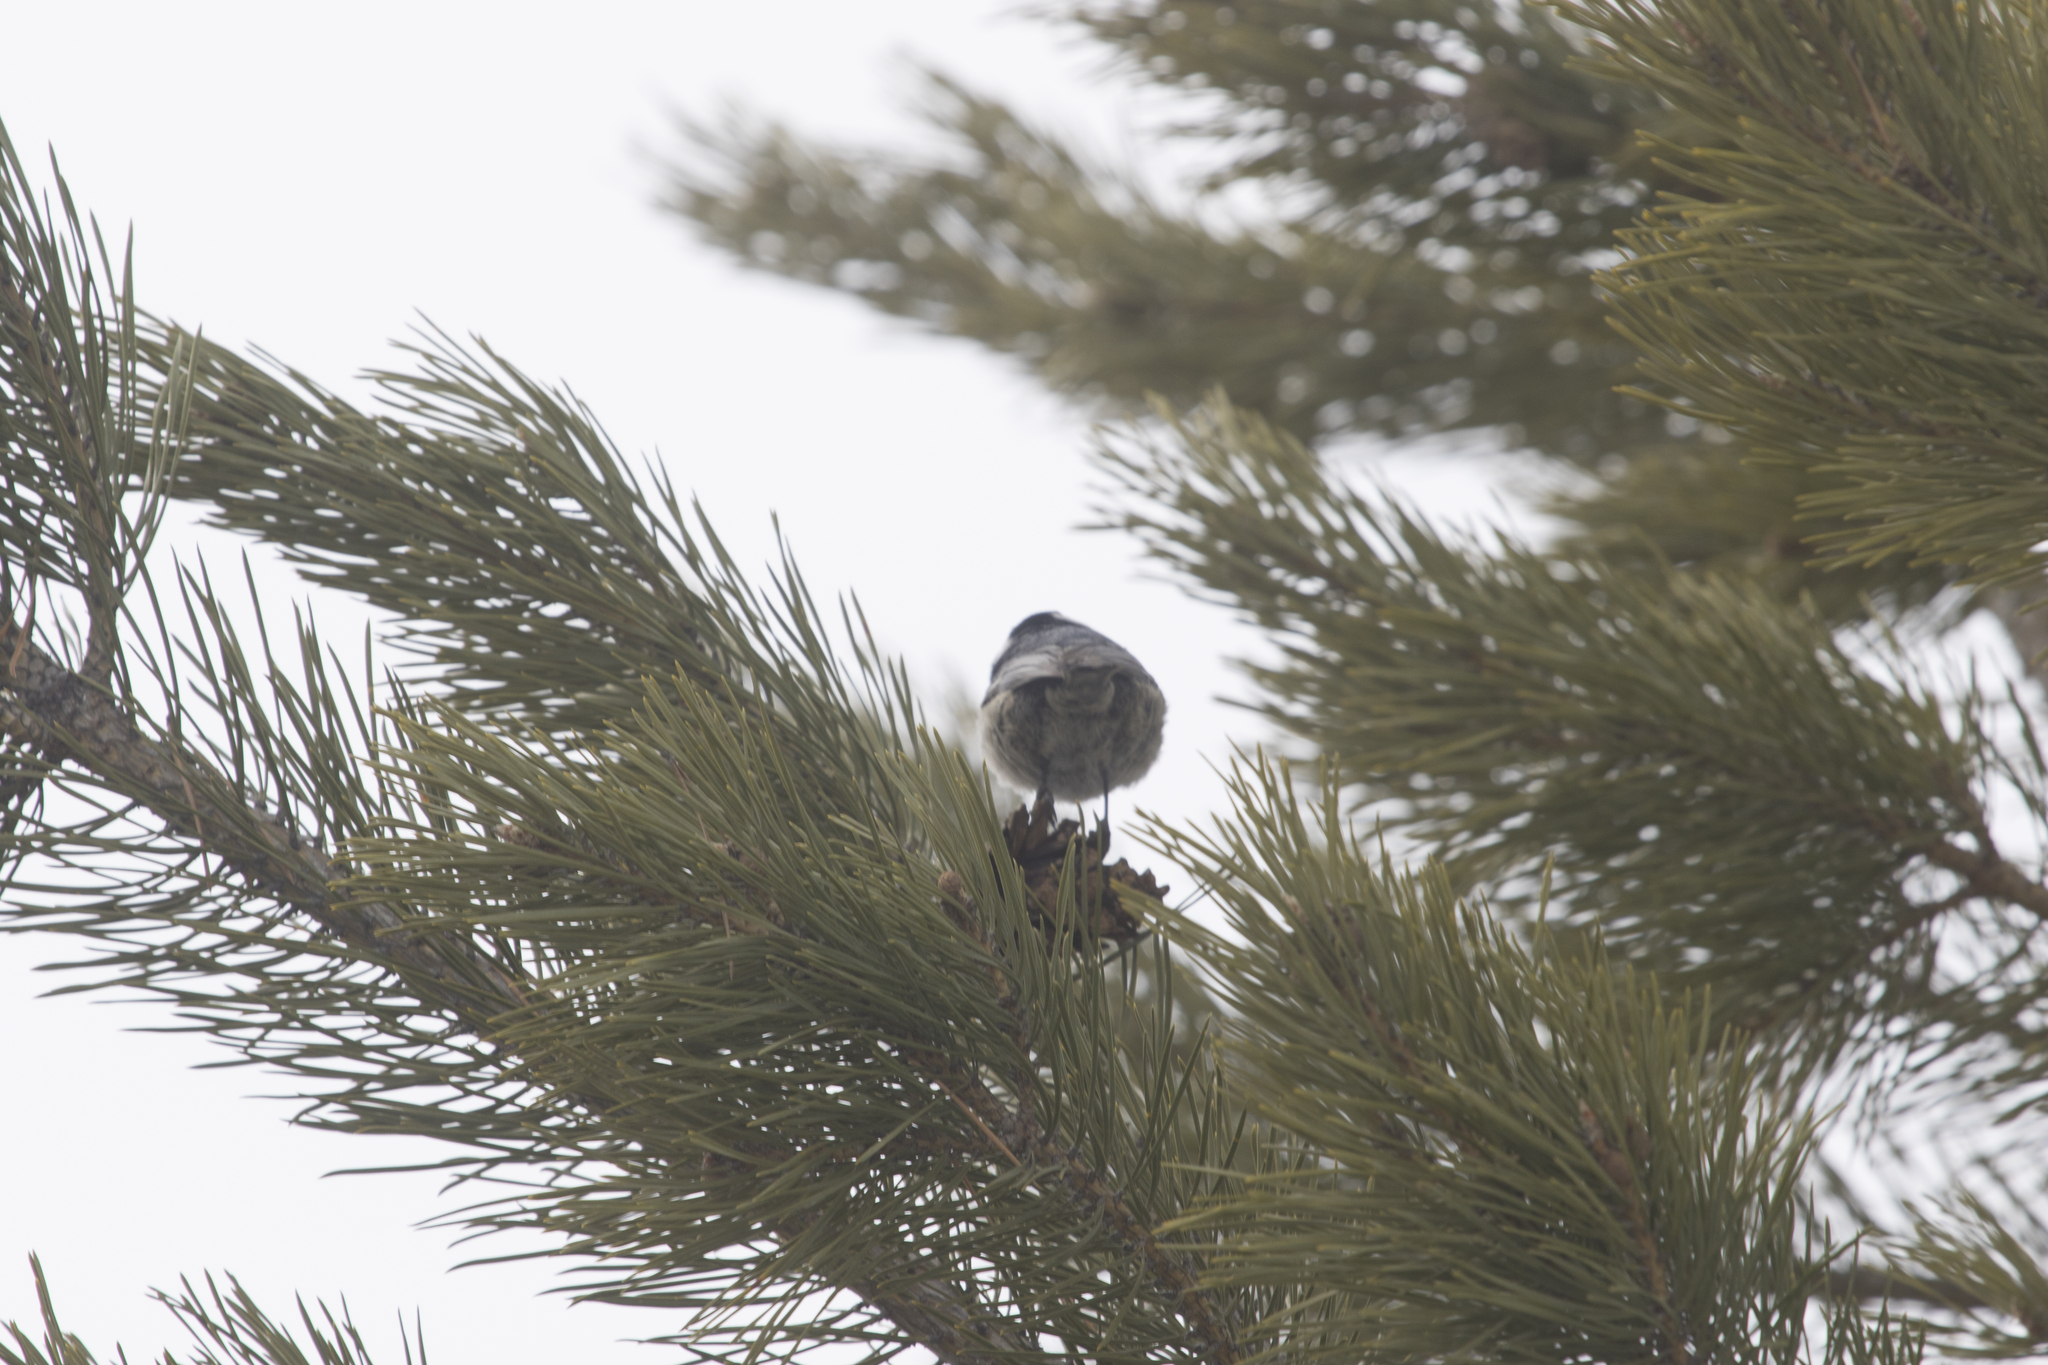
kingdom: Animalia
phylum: Chordata
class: Aves
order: Passeriformes
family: Paridae
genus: Periparus
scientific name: Periparus ater
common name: Coal tit
